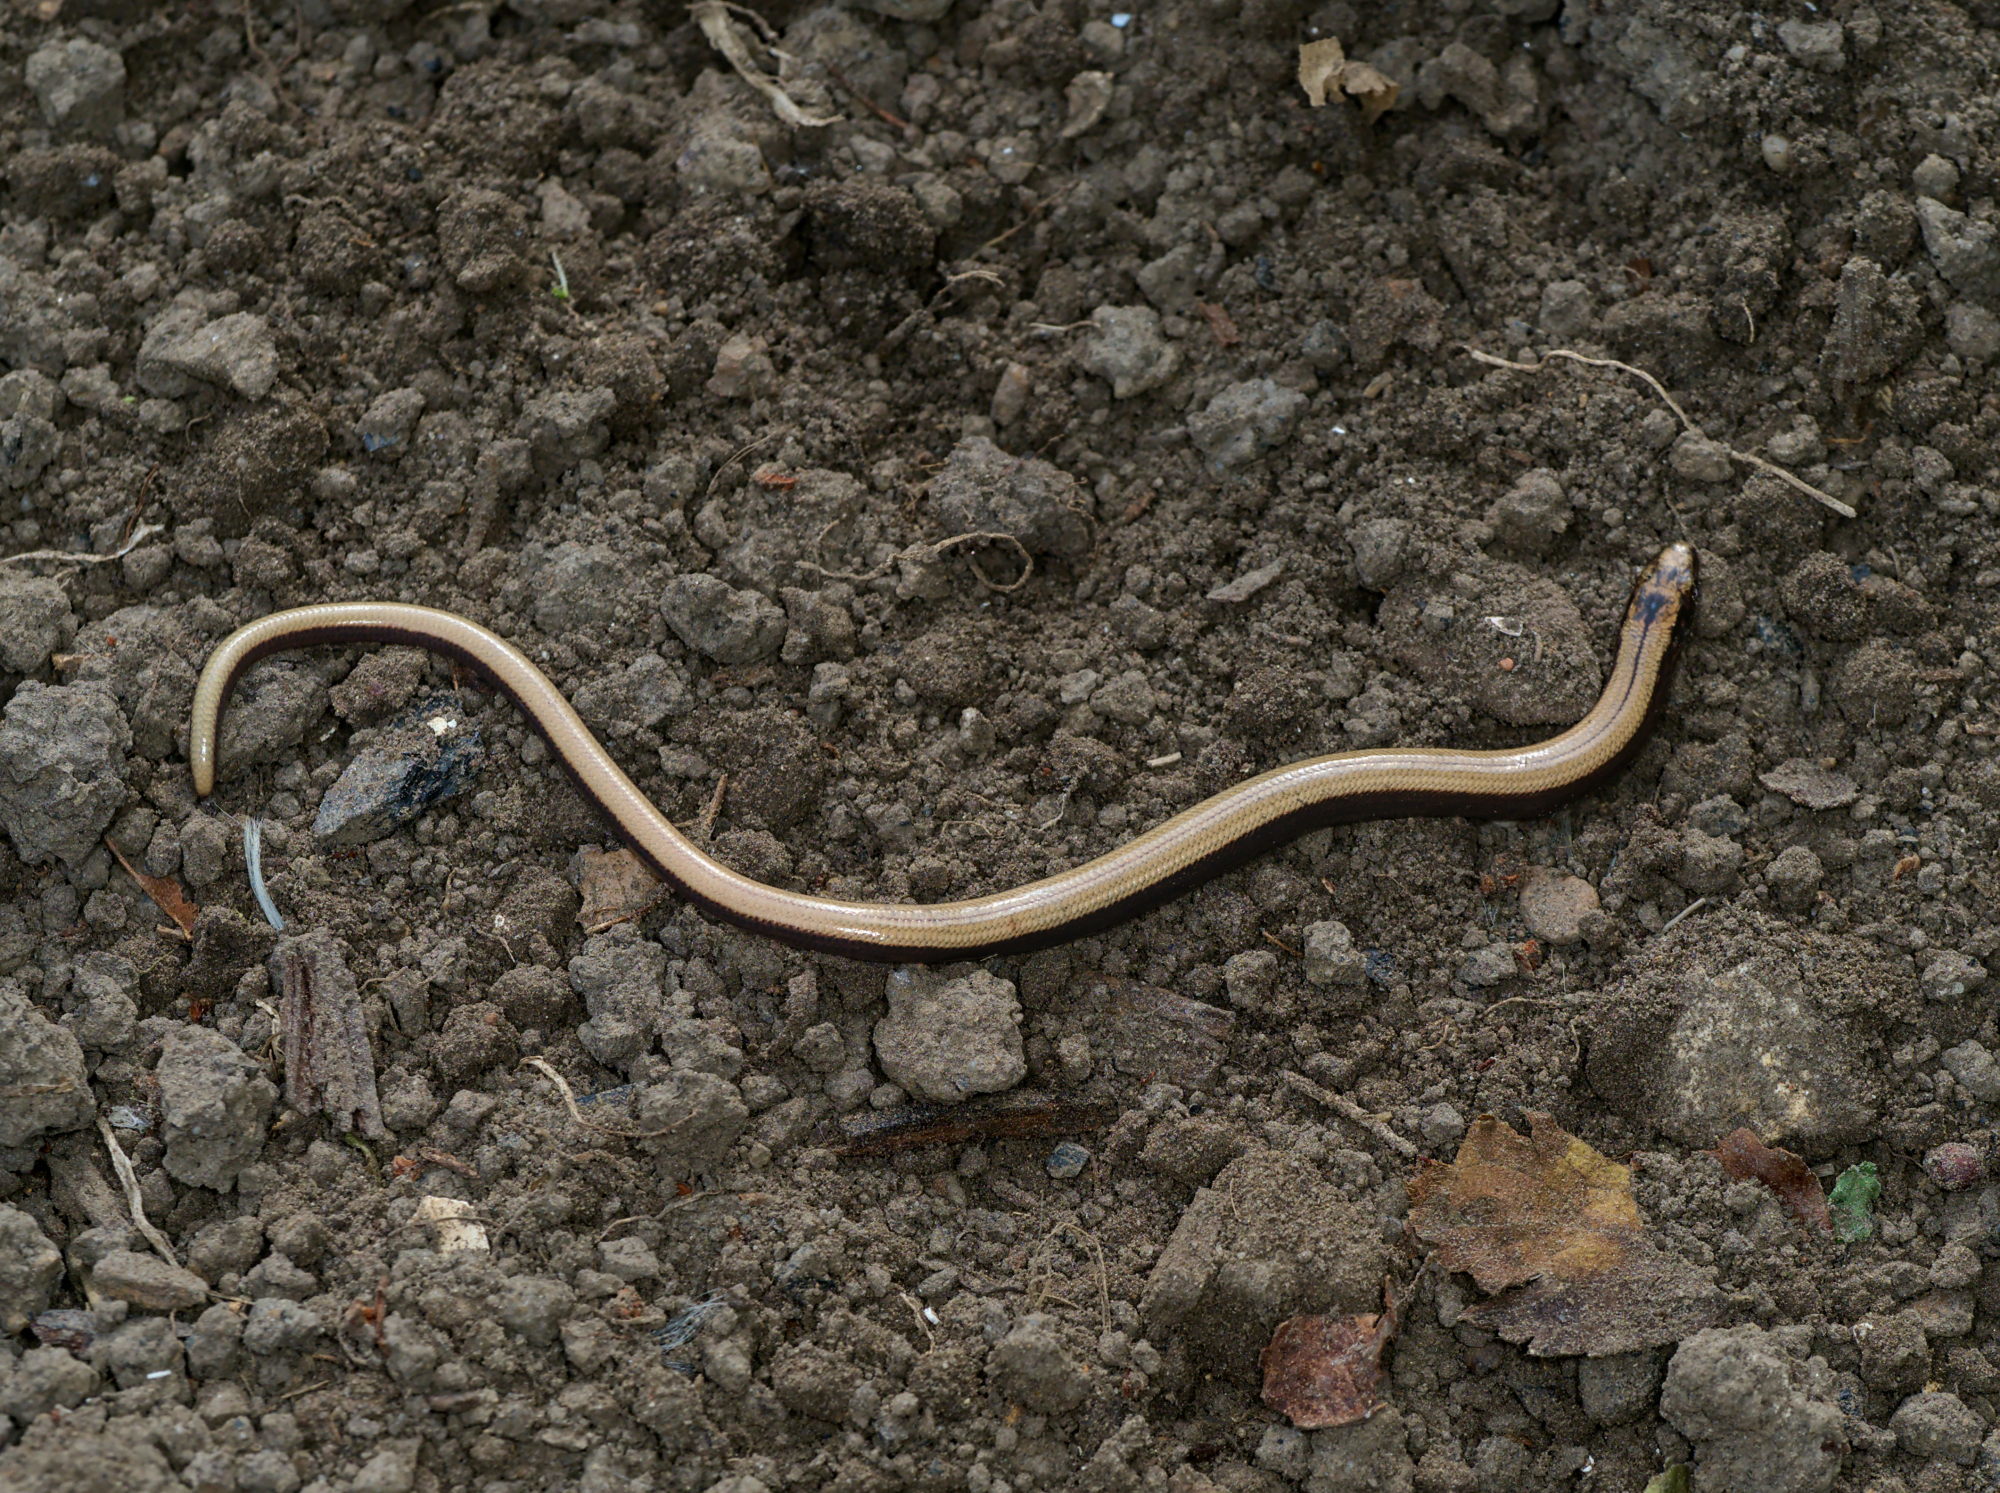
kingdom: Animalia
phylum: Chordata
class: Squamata
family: Anguidae
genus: Anguis
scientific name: Anguis fragilis
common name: Slow worm
